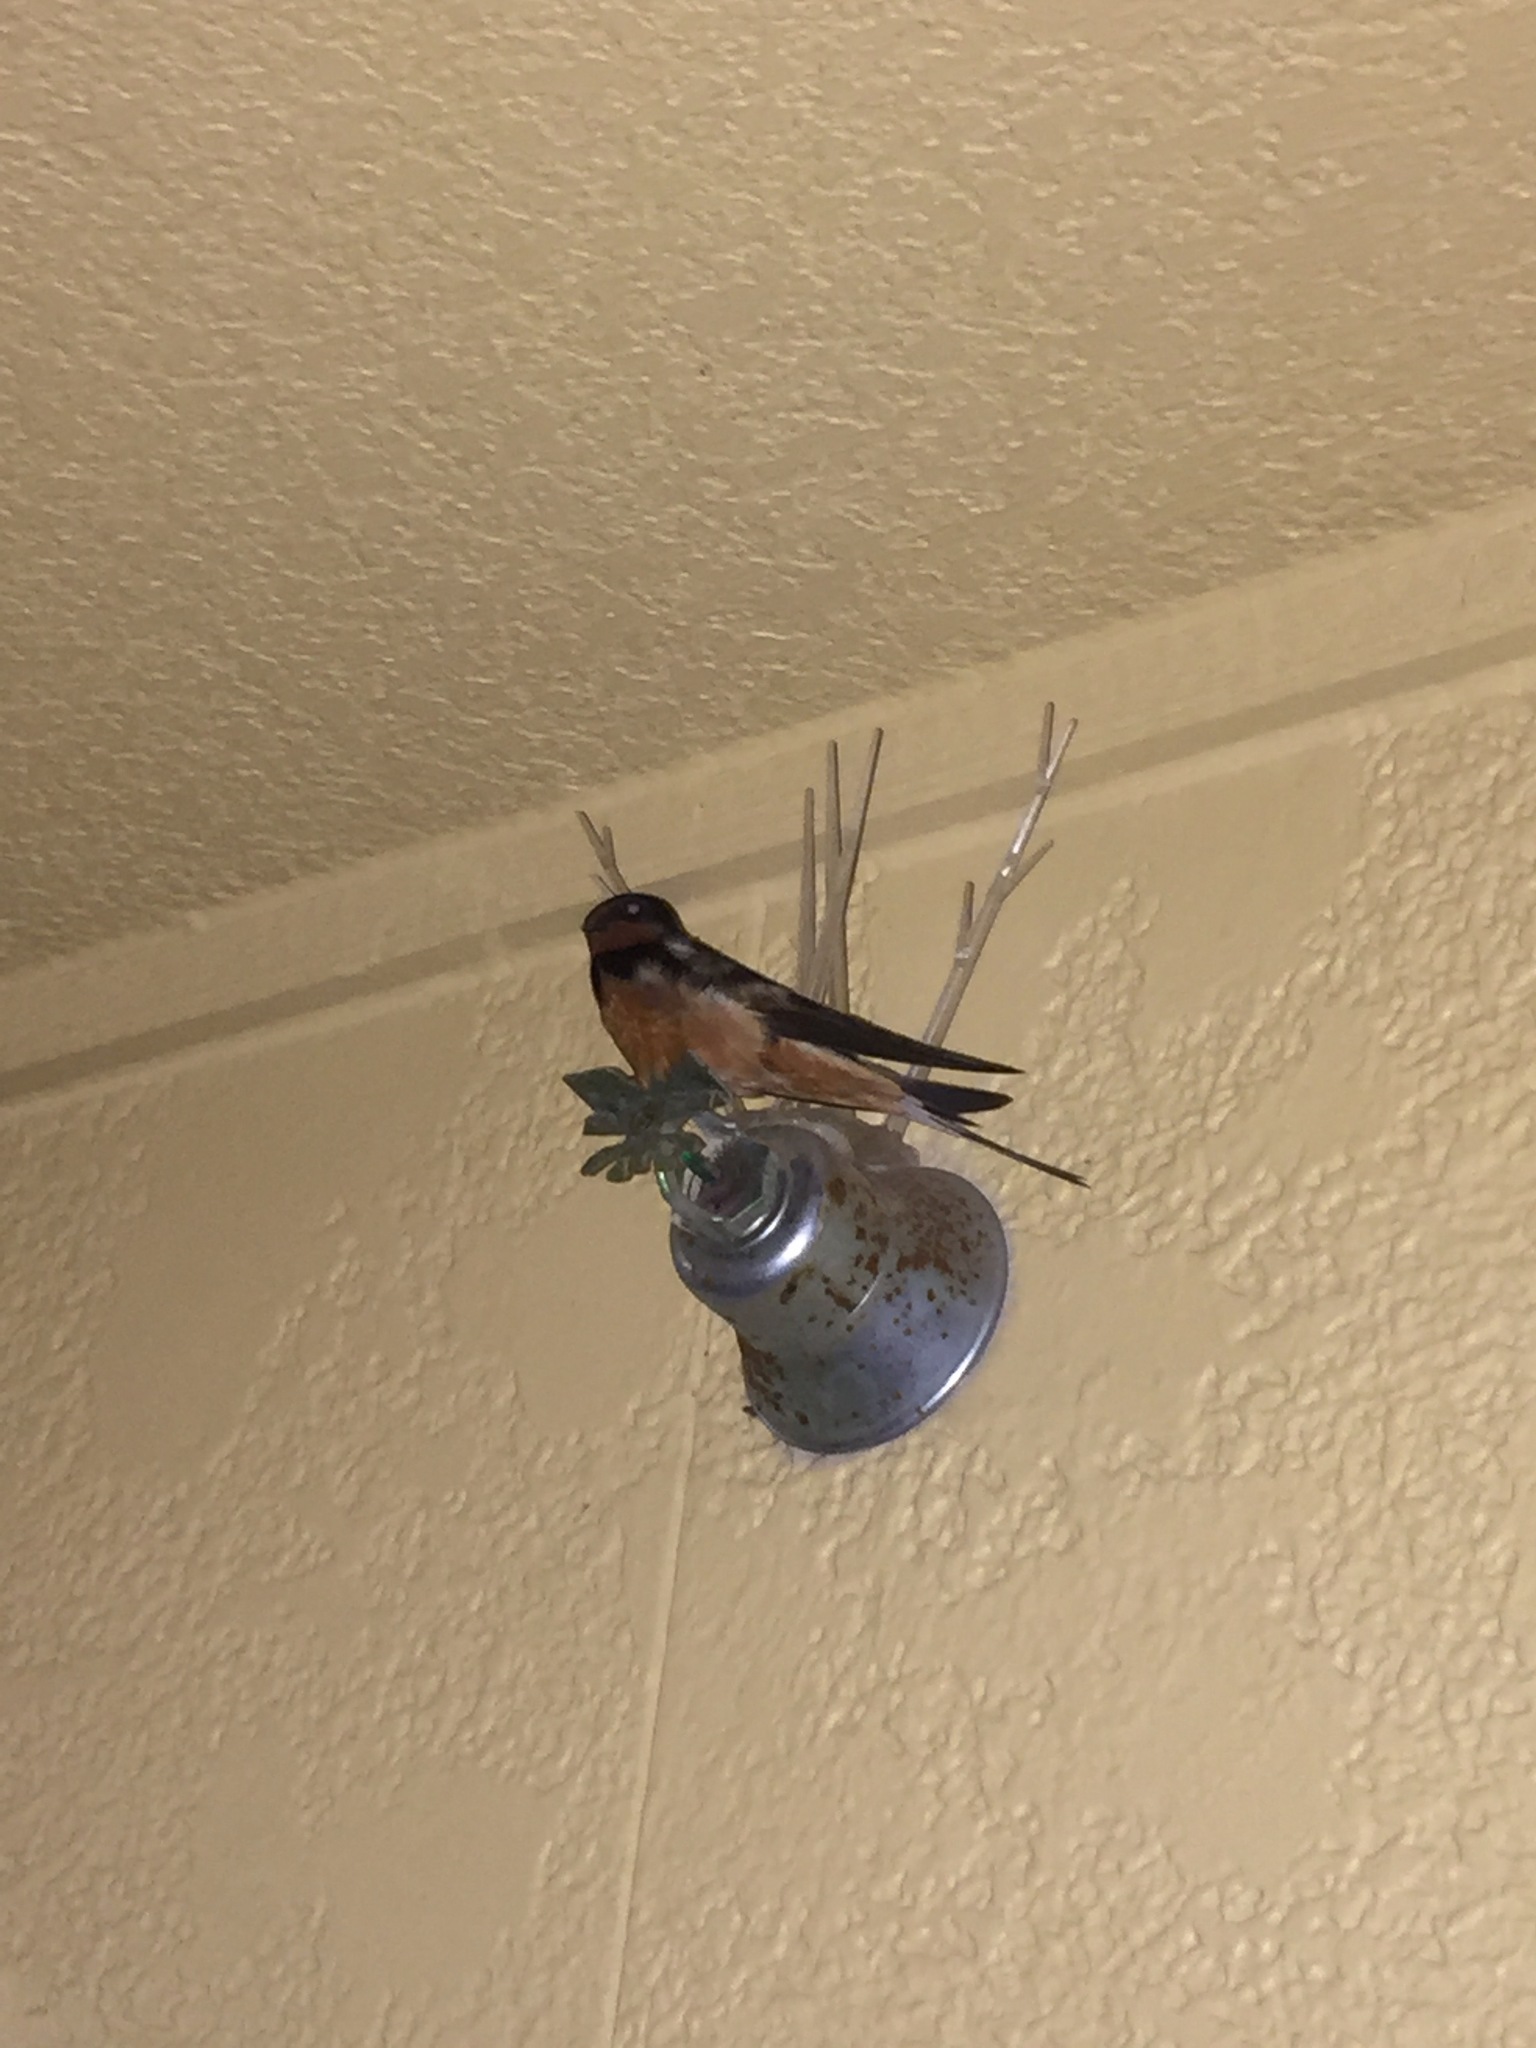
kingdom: Animalia
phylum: Chordata
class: Aves
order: Passeriformes
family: Hirundinidae
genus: Hirundo
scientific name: Hirundo rustica
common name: Barn swallow
